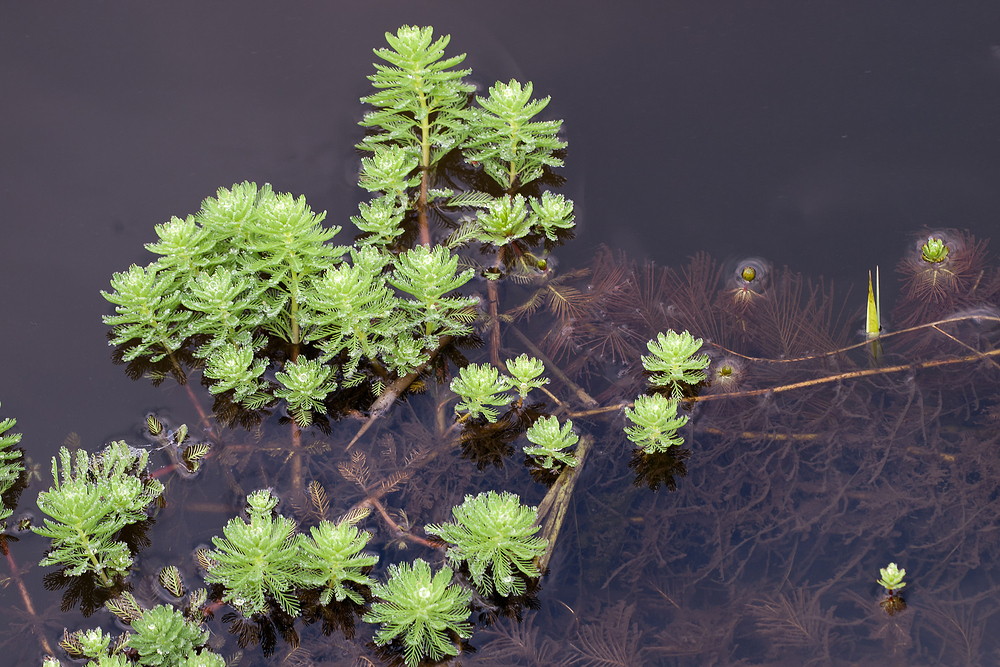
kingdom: Plantae
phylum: Tracheophyta
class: Magnoliopsida
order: Saxifragales
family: Haloragaceae
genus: Myriophyllum
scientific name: Myriophyllum aquaticum
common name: Parrot's feather
